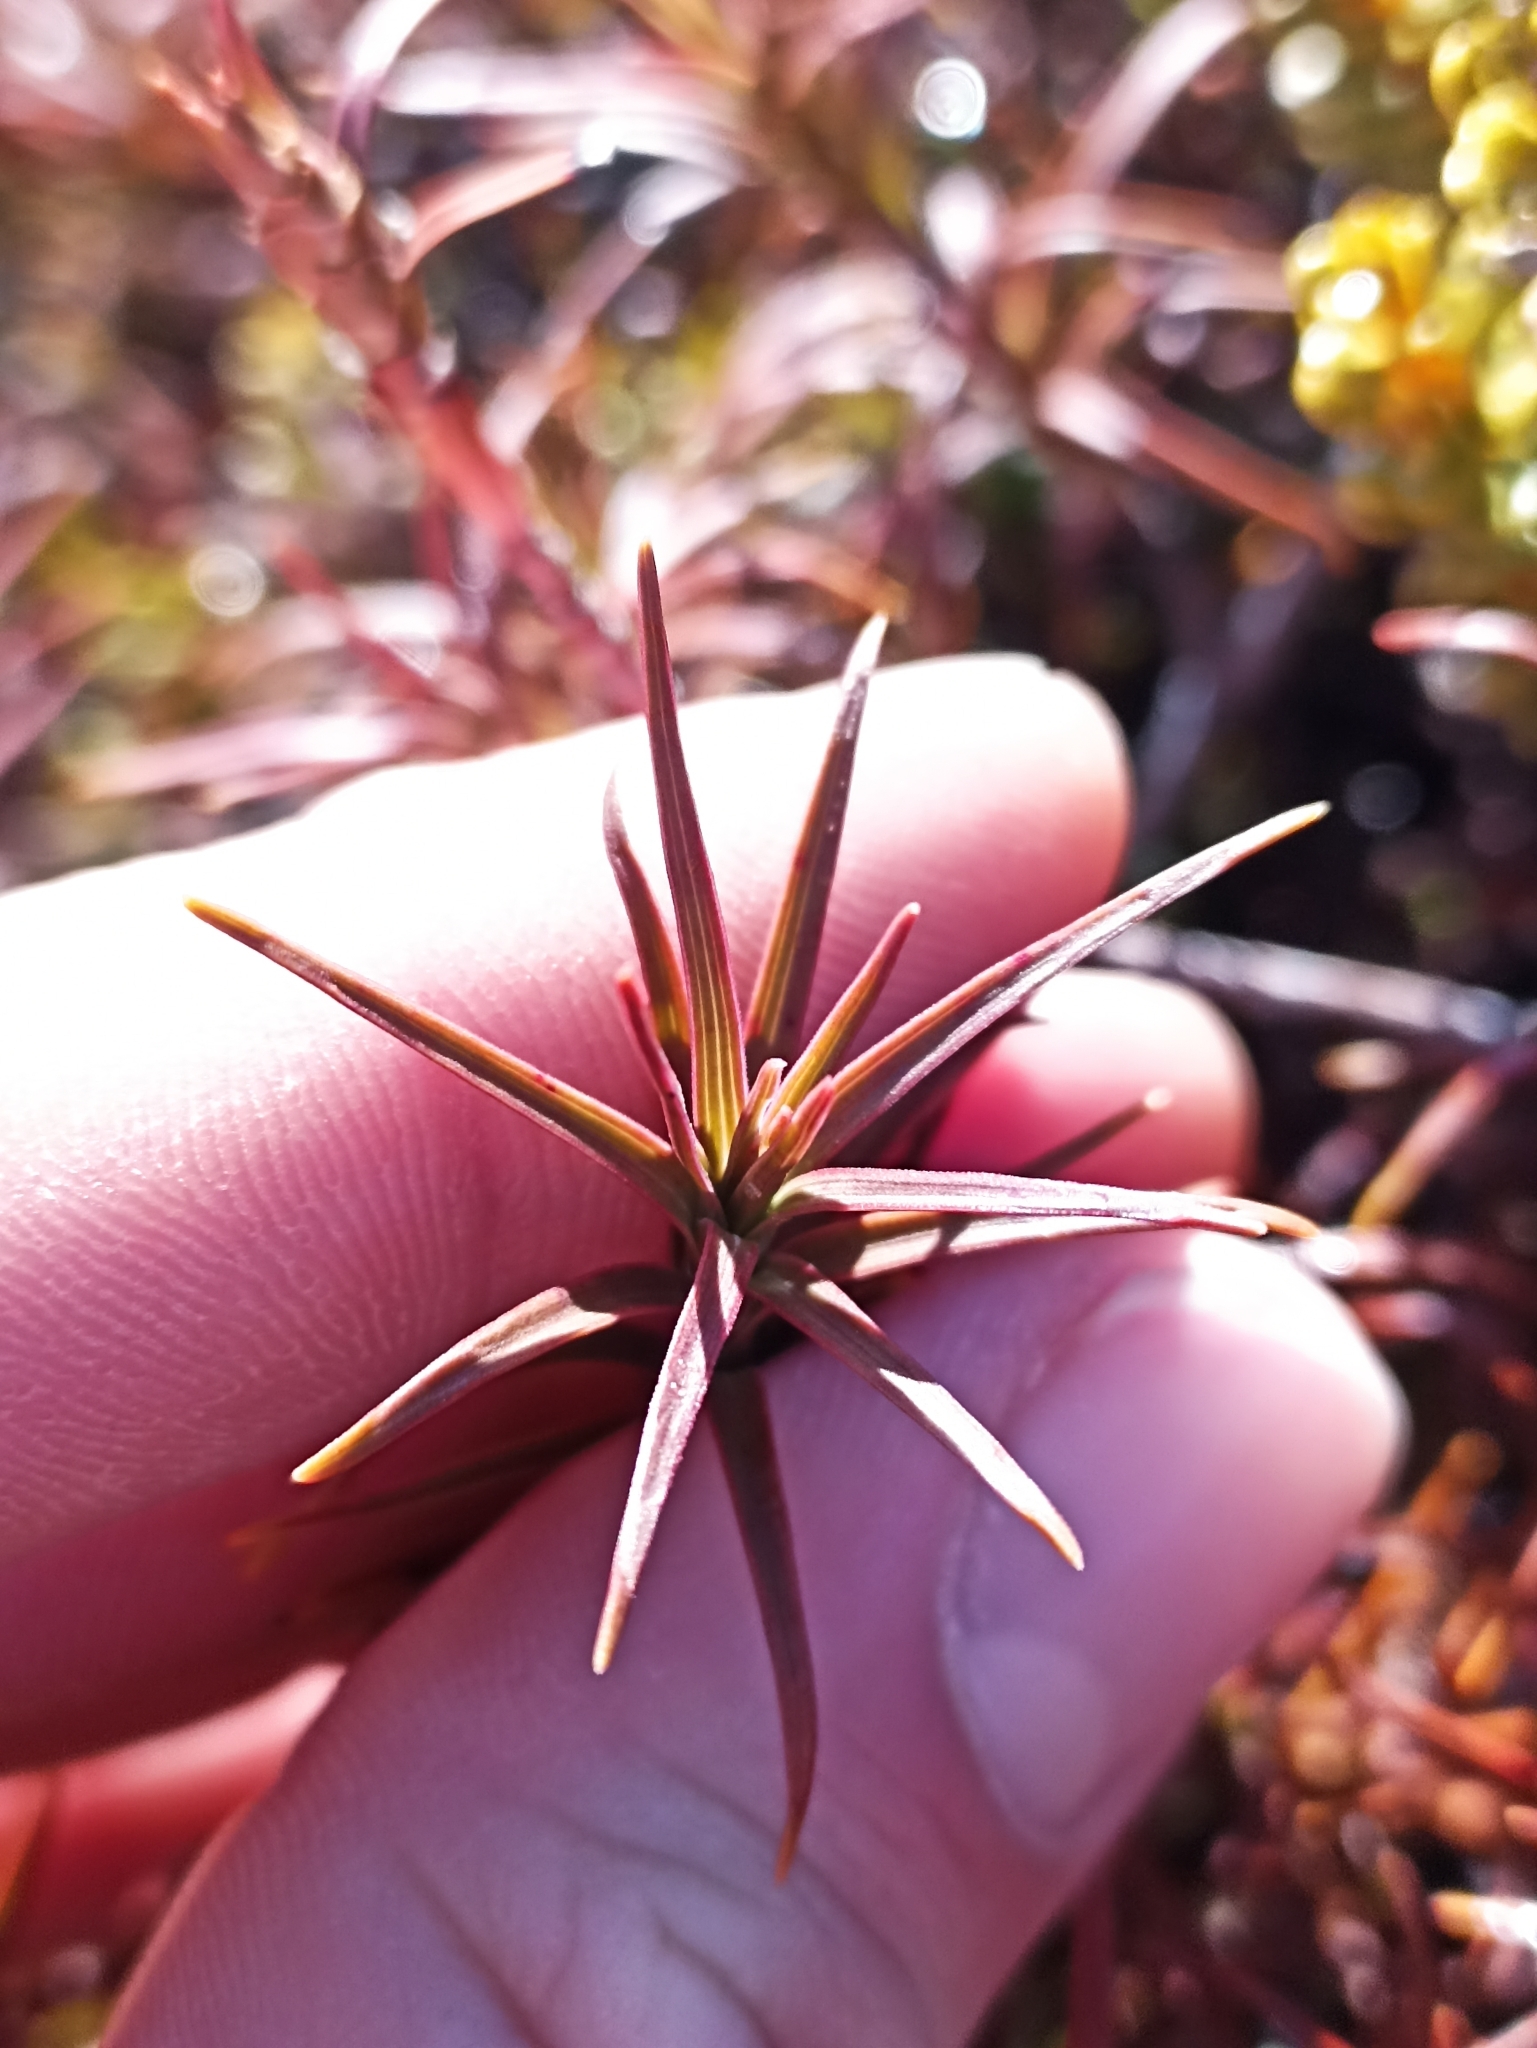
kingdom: Plantae
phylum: Tracheophyta
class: Magnoliopsida
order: Ericales
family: Ericaceae
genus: Dracophyllum
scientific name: Dracophyllum recurvum
